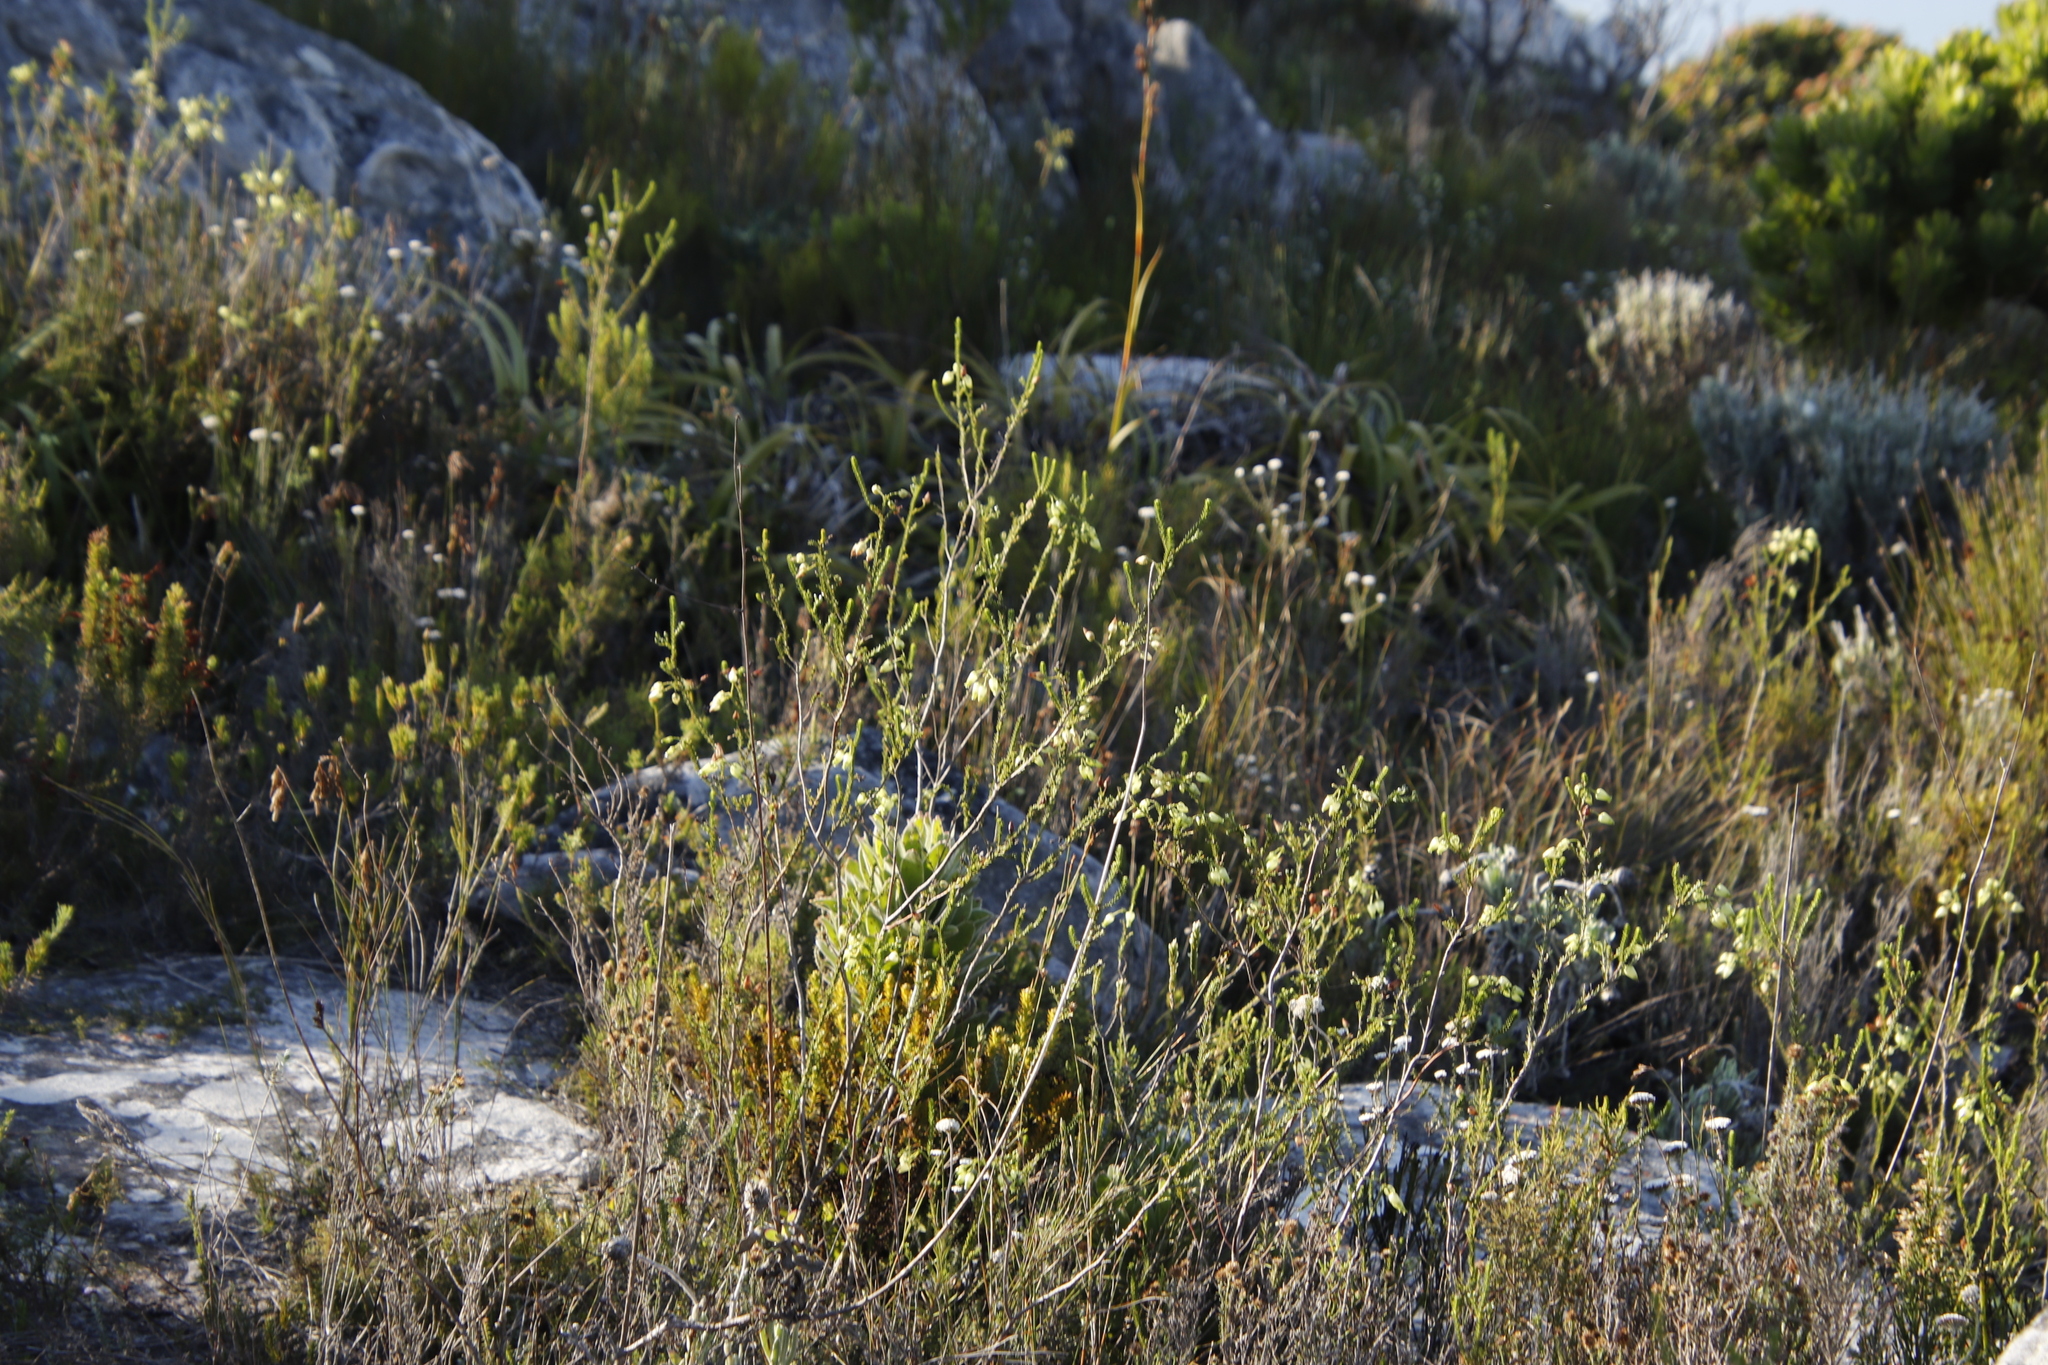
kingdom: Plantae
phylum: Tracheophyta
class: Magnoliopsida
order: Ericales
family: Ericaceae
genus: Erica
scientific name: Erica urna-viridis
